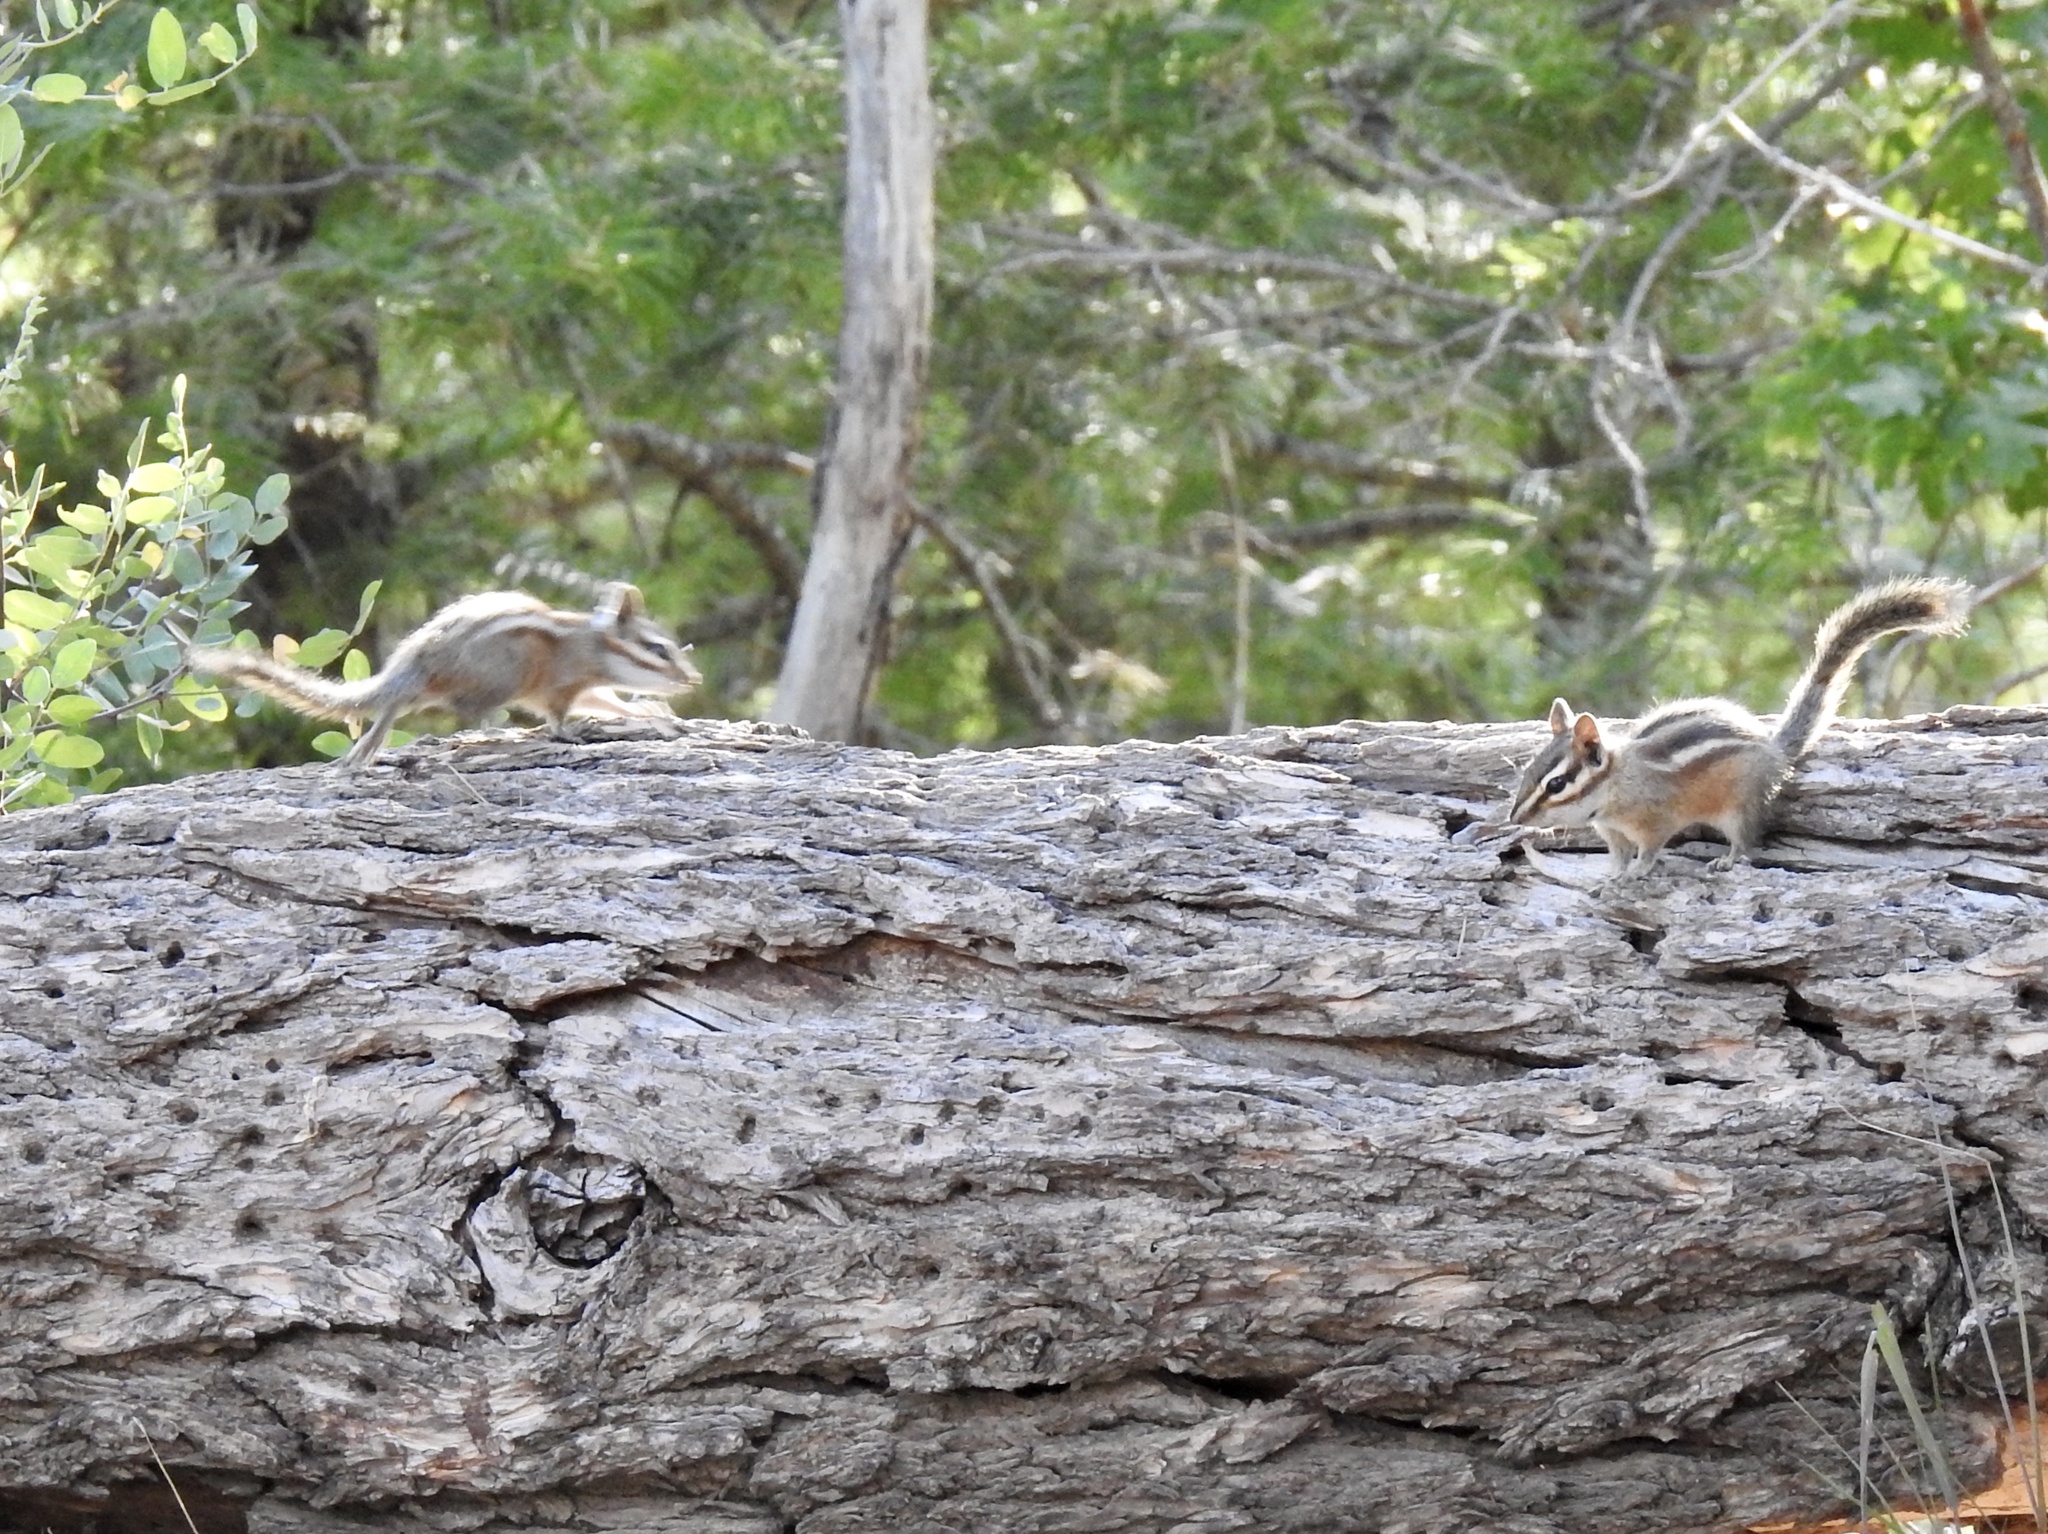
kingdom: Animalia
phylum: Chordata
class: Mammalia
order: Rodentia
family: Sciuridae
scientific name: Sciuridae
